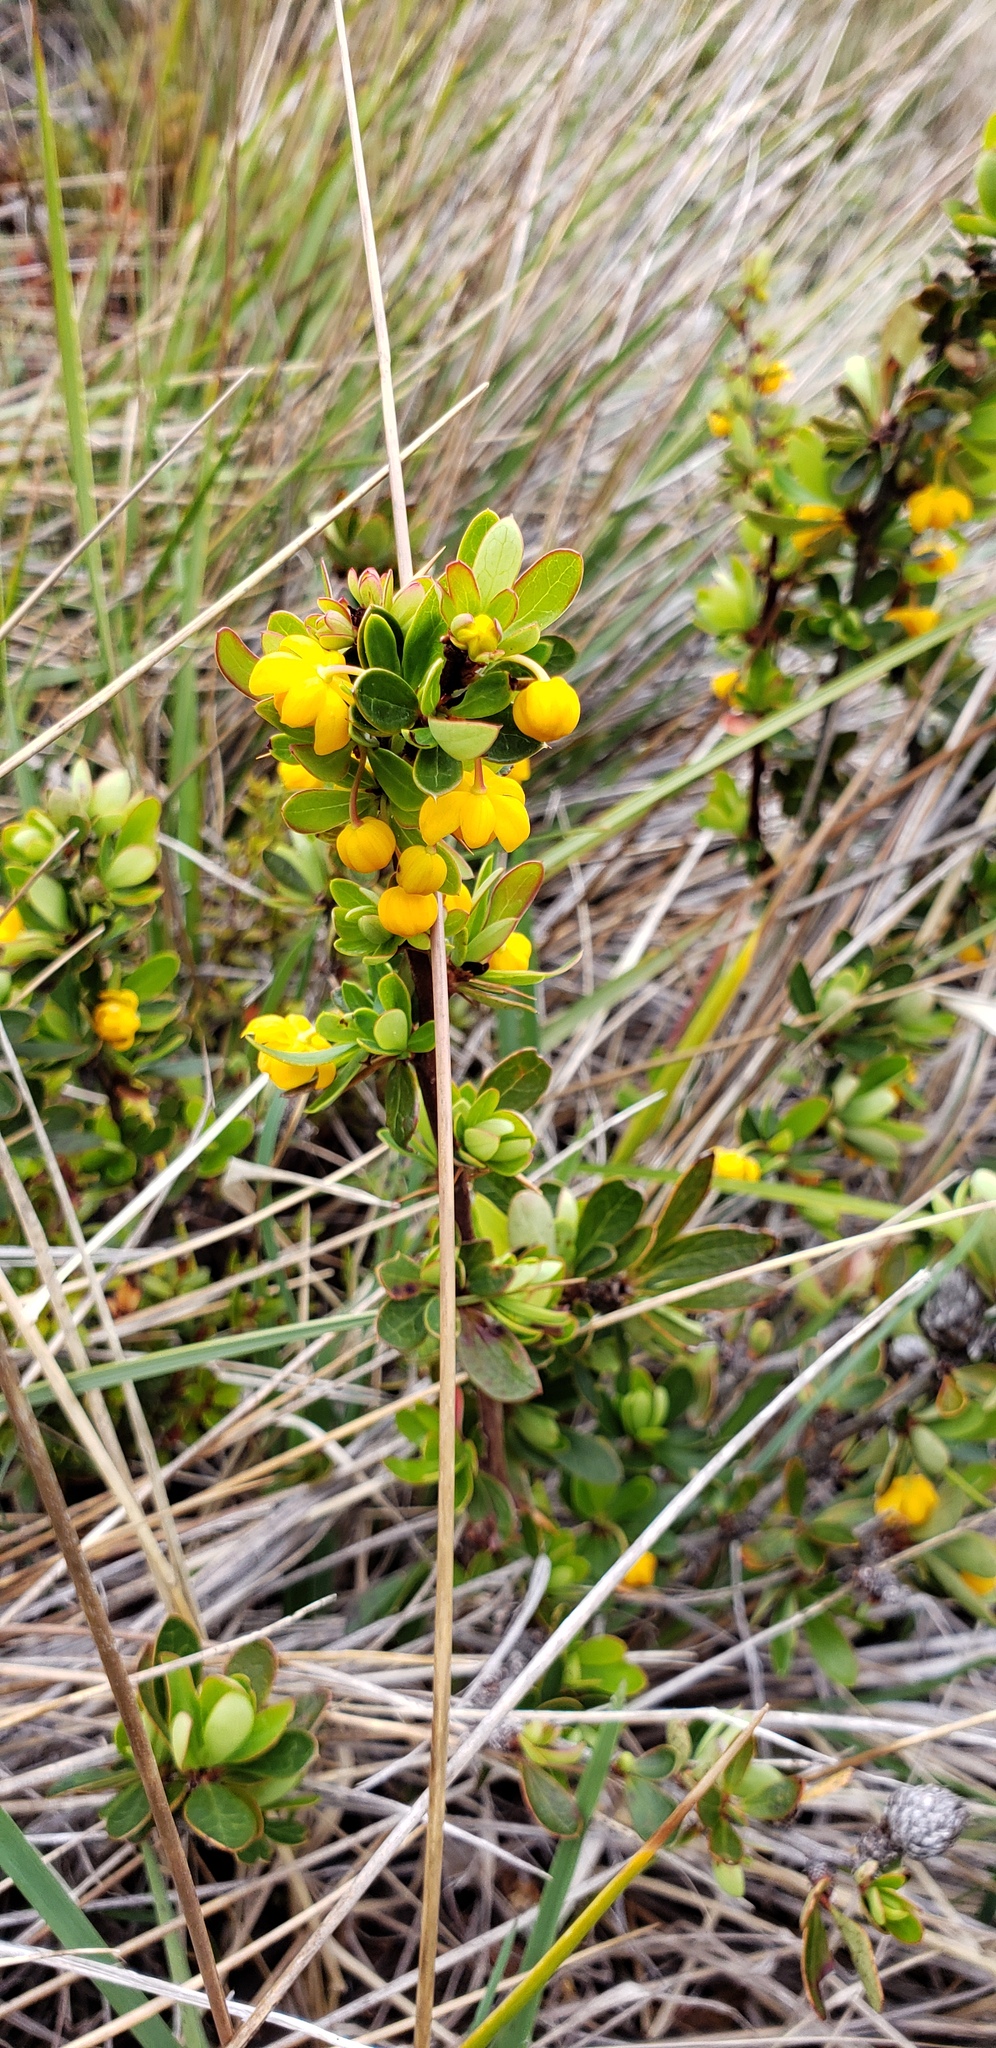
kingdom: Plantae
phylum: Tracheophyta
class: Magnoliopsida
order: Ranunculales
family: Berberidaceae
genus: Berberis
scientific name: Berberis microphylla
